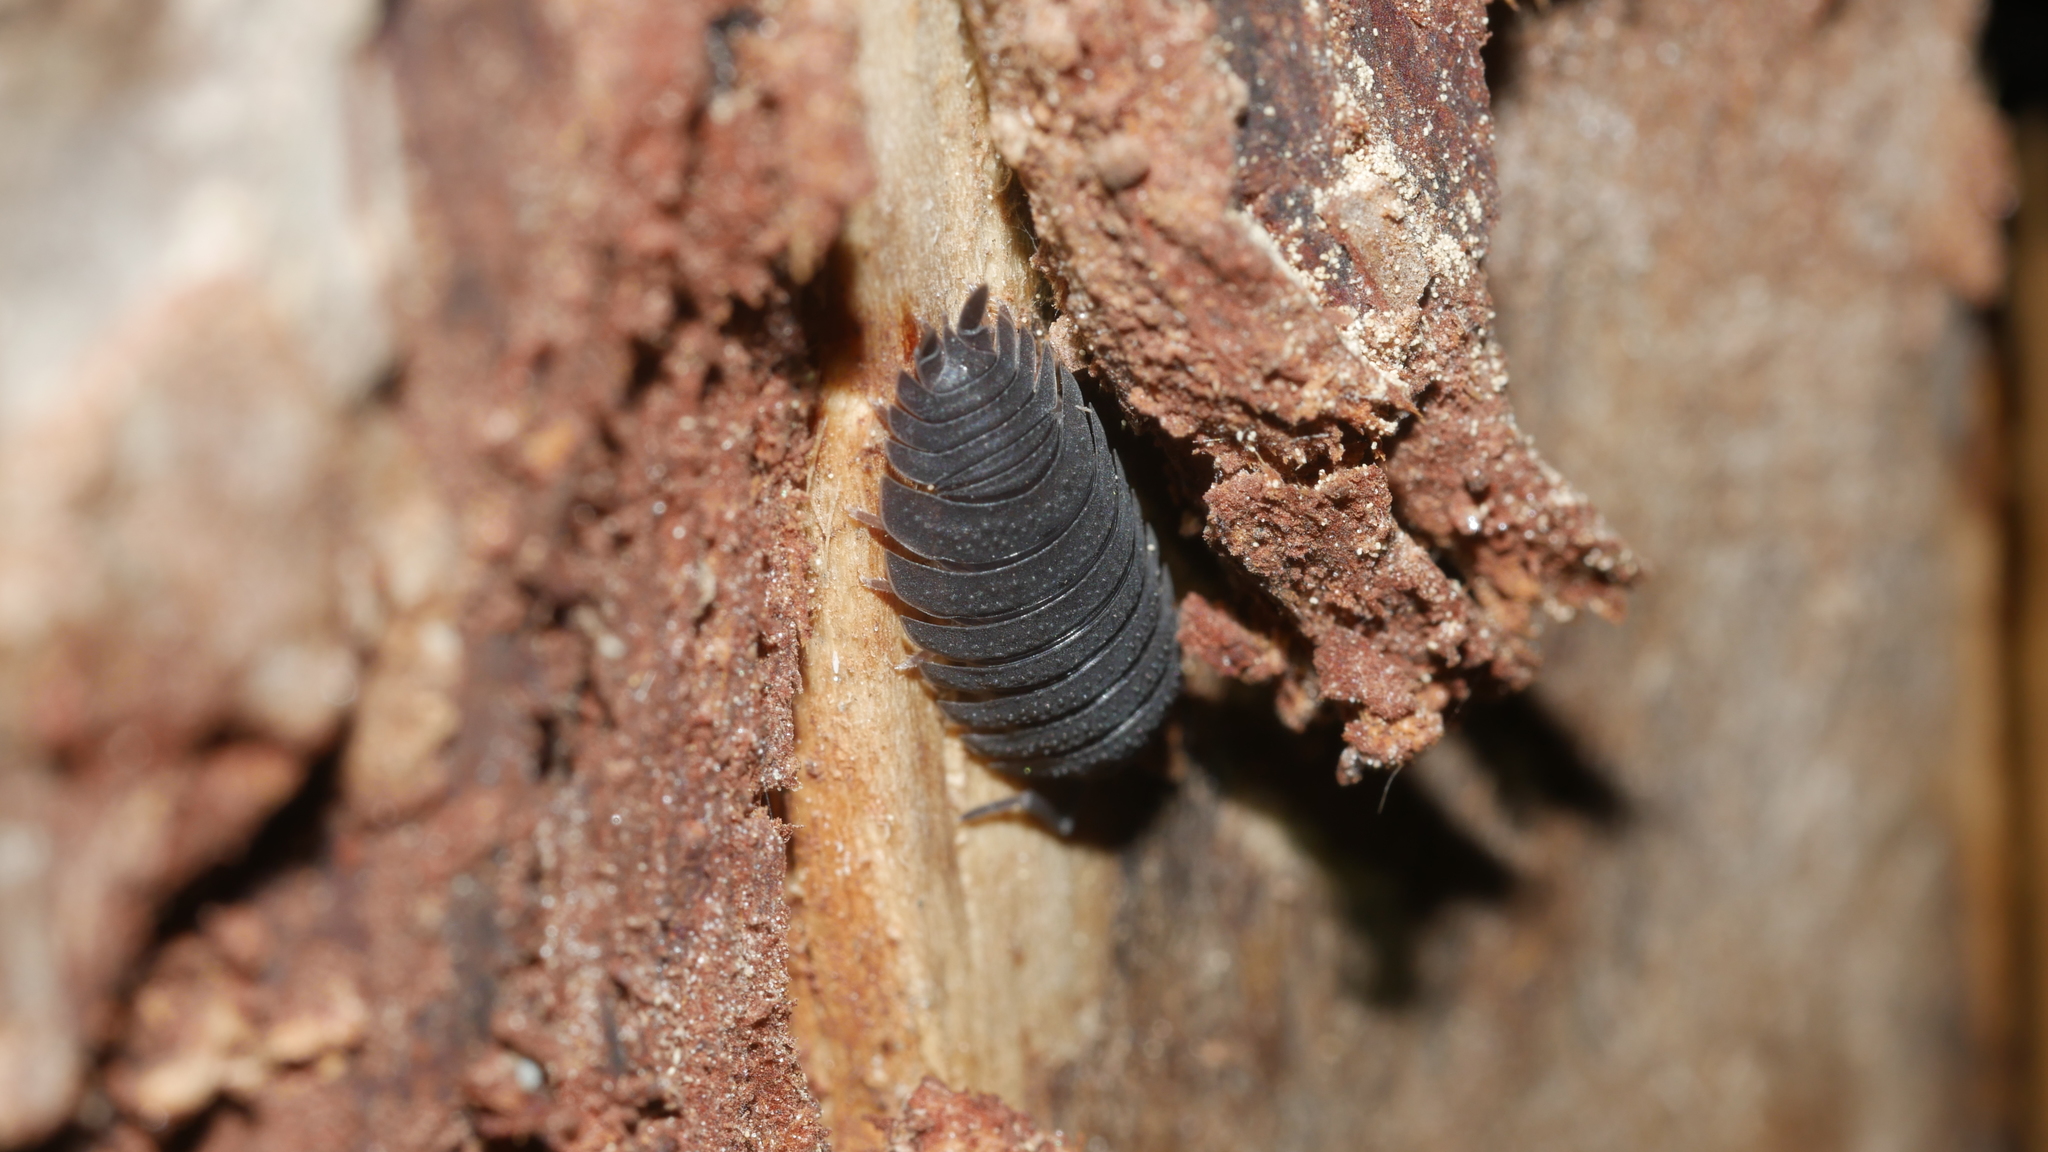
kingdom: Animalia
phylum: Arthropoda
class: Malacostraca
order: Isopoda
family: Porcellionidae
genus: Porcellio
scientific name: Porcellio scaber
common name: Common rough woodlouse
